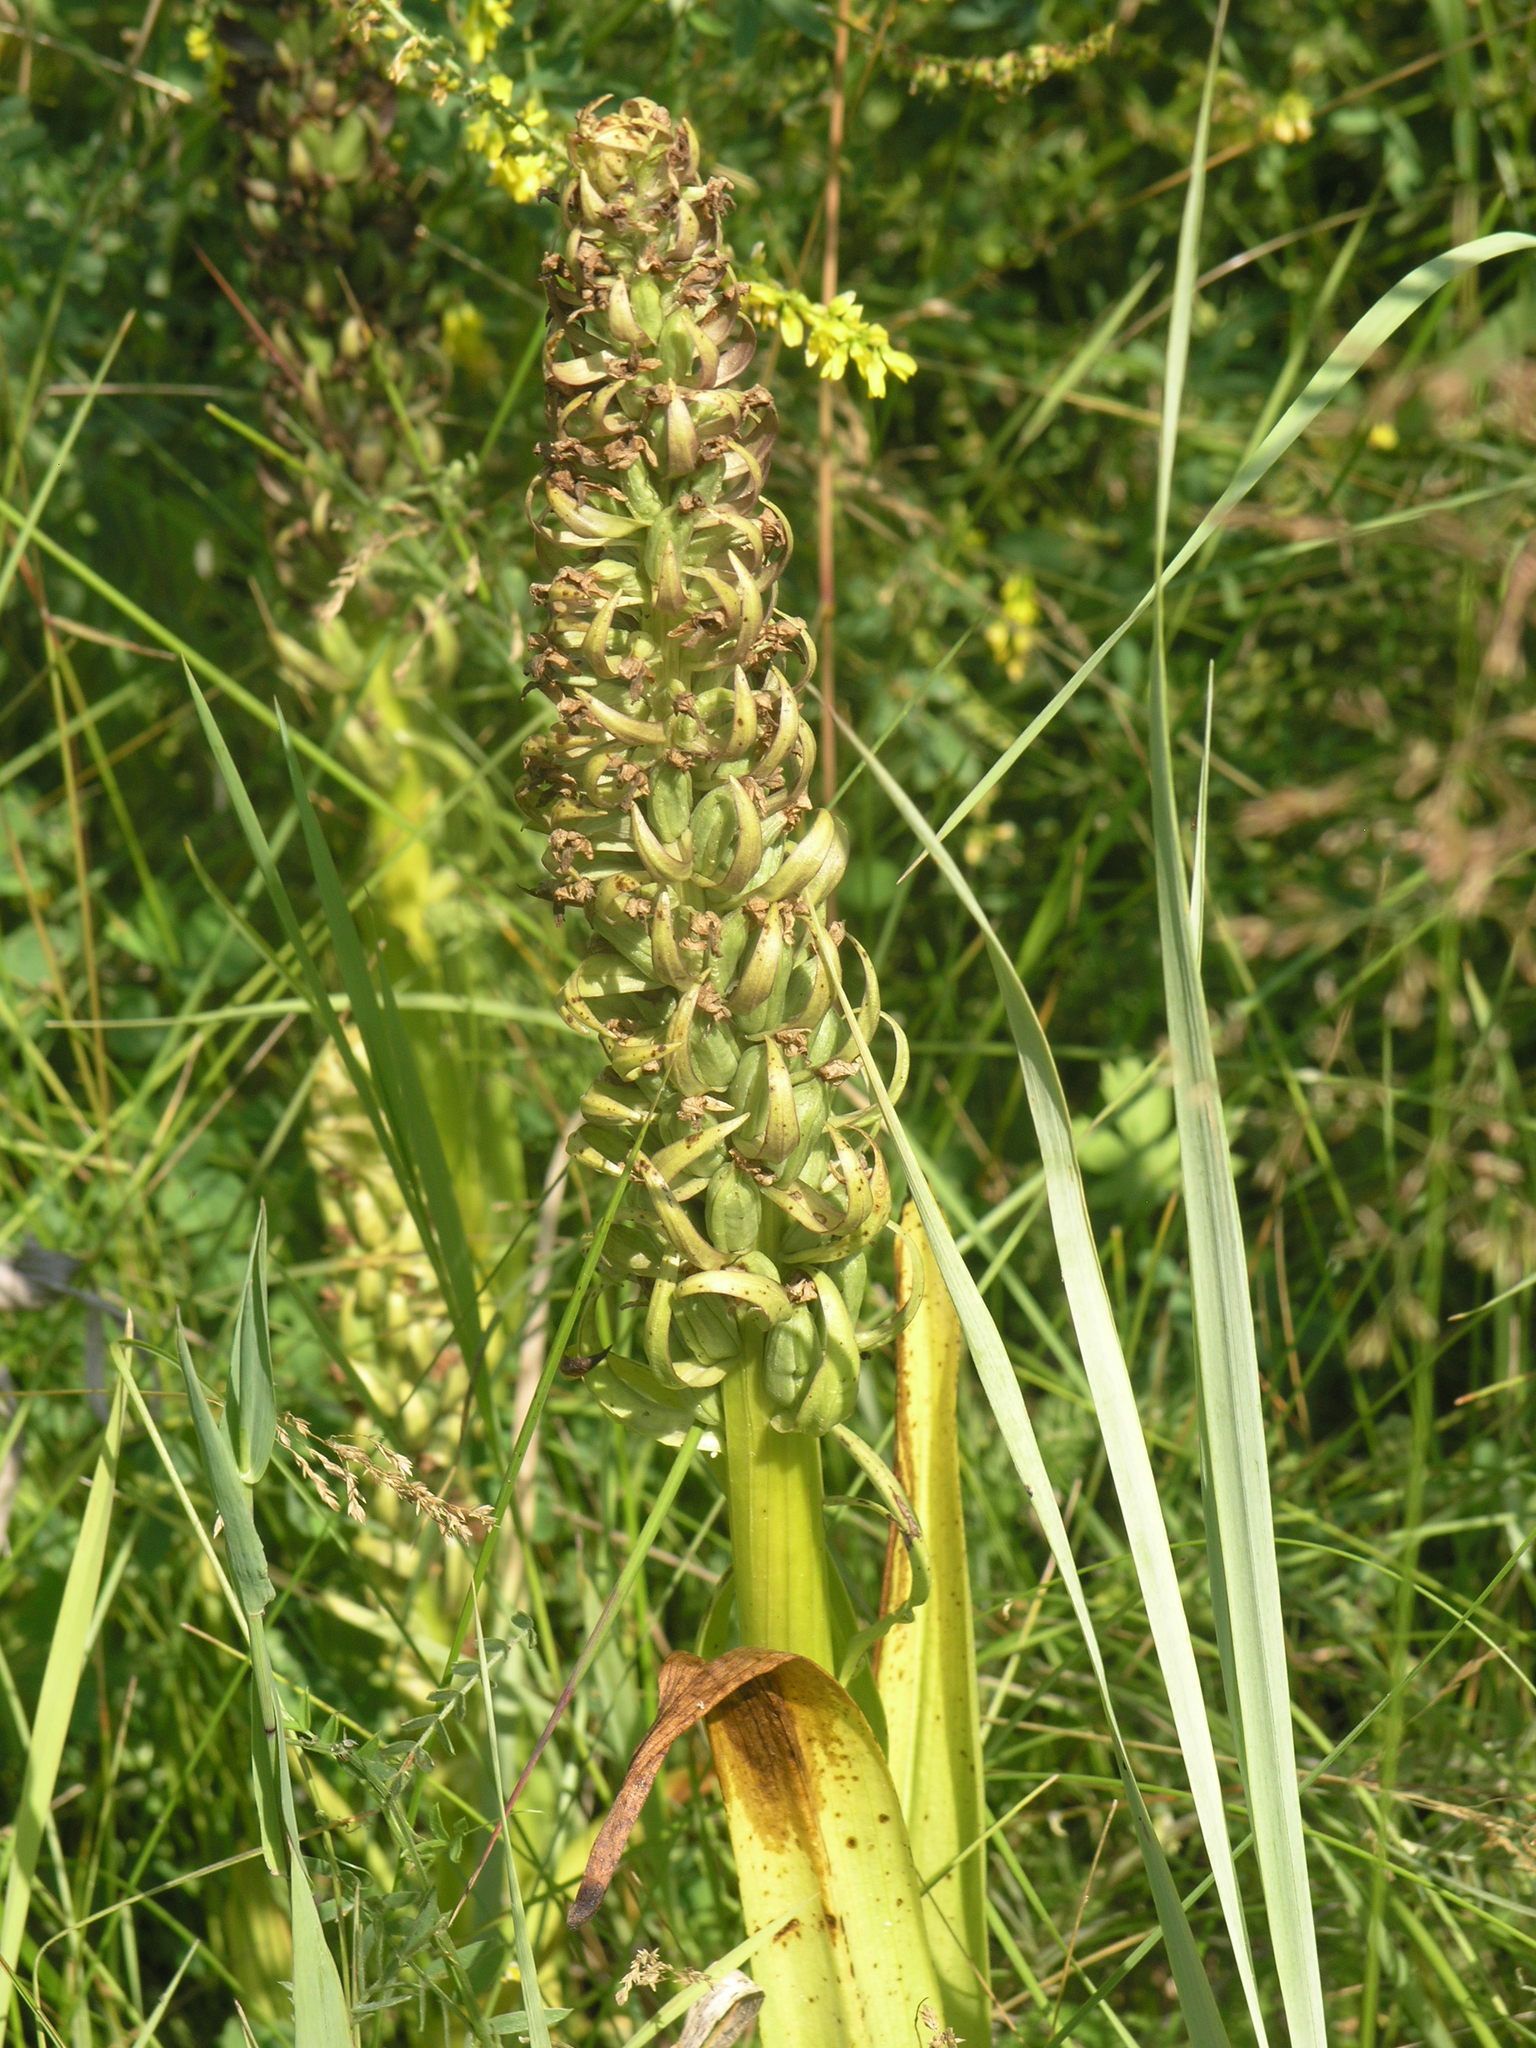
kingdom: Plantae
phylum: Tracheophyta
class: Liliopsida
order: Asparagales
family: Orchidaceae
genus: Dactylorhiza
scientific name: Dactylorhiza incarnata
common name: Early marsh-orchid
